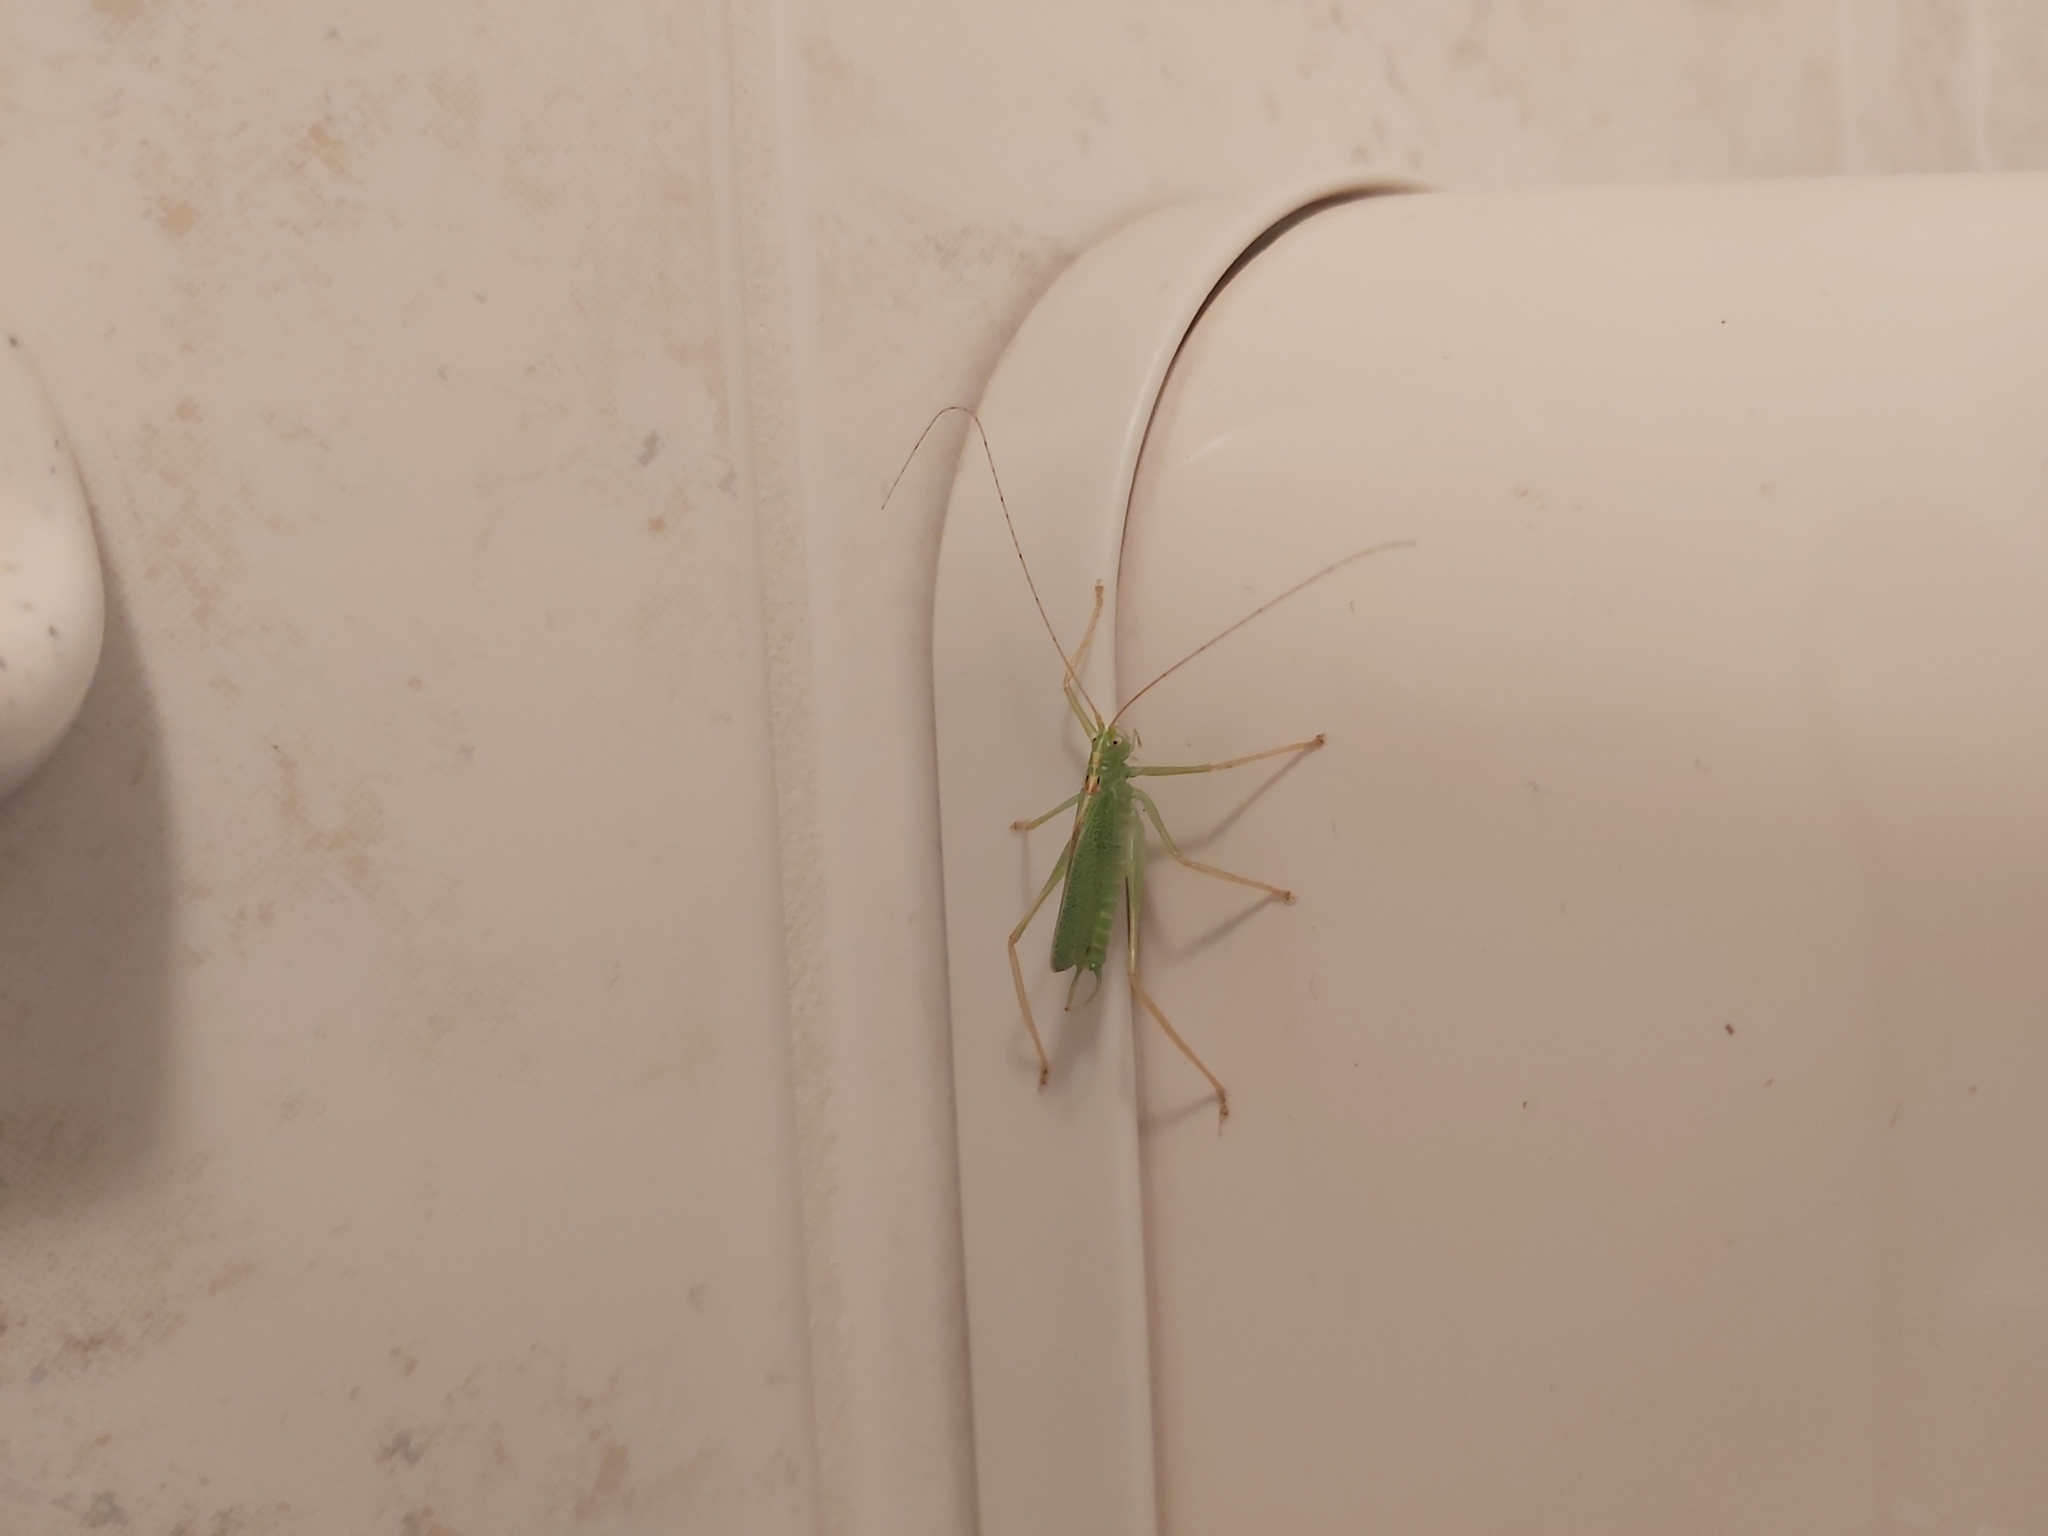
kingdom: Animalia
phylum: Arthropoda
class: Insecta
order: Orthoptera
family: Tettigoniidae
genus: Meconema
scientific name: Meconema thalassinum
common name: Oak bush-cricket
